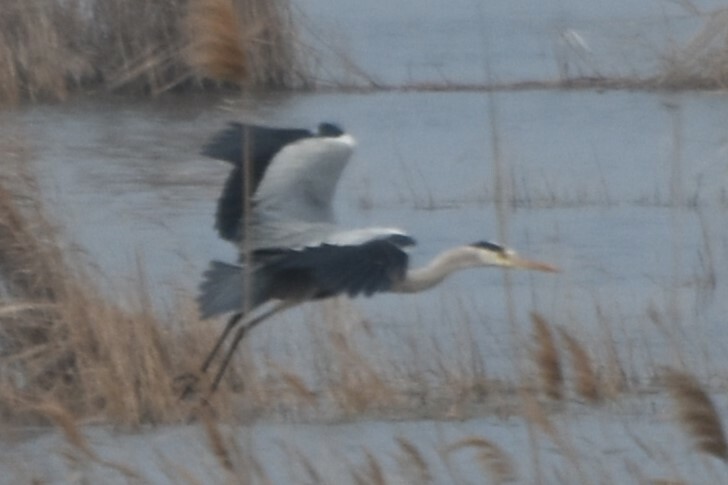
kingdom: Animalia
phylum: Chordata
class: Aves
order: Pelecaniformes
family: Ardeidae
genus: Ardea
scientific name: Ardea cinerea
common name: Grey heron
